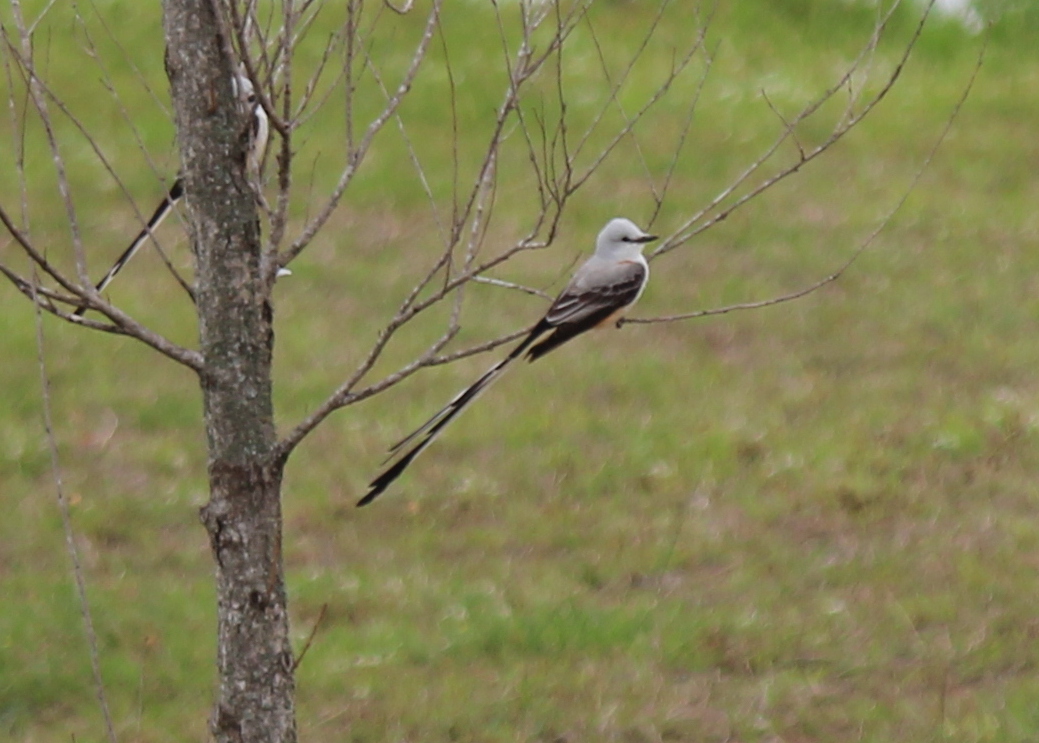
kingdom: Animalia
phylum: Chordata
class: Aves
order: Passeriformes
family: Tyrannidae
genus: Tyrannus
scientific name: Tyrannus forficatus
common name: Scissor-tailed flycatcher
